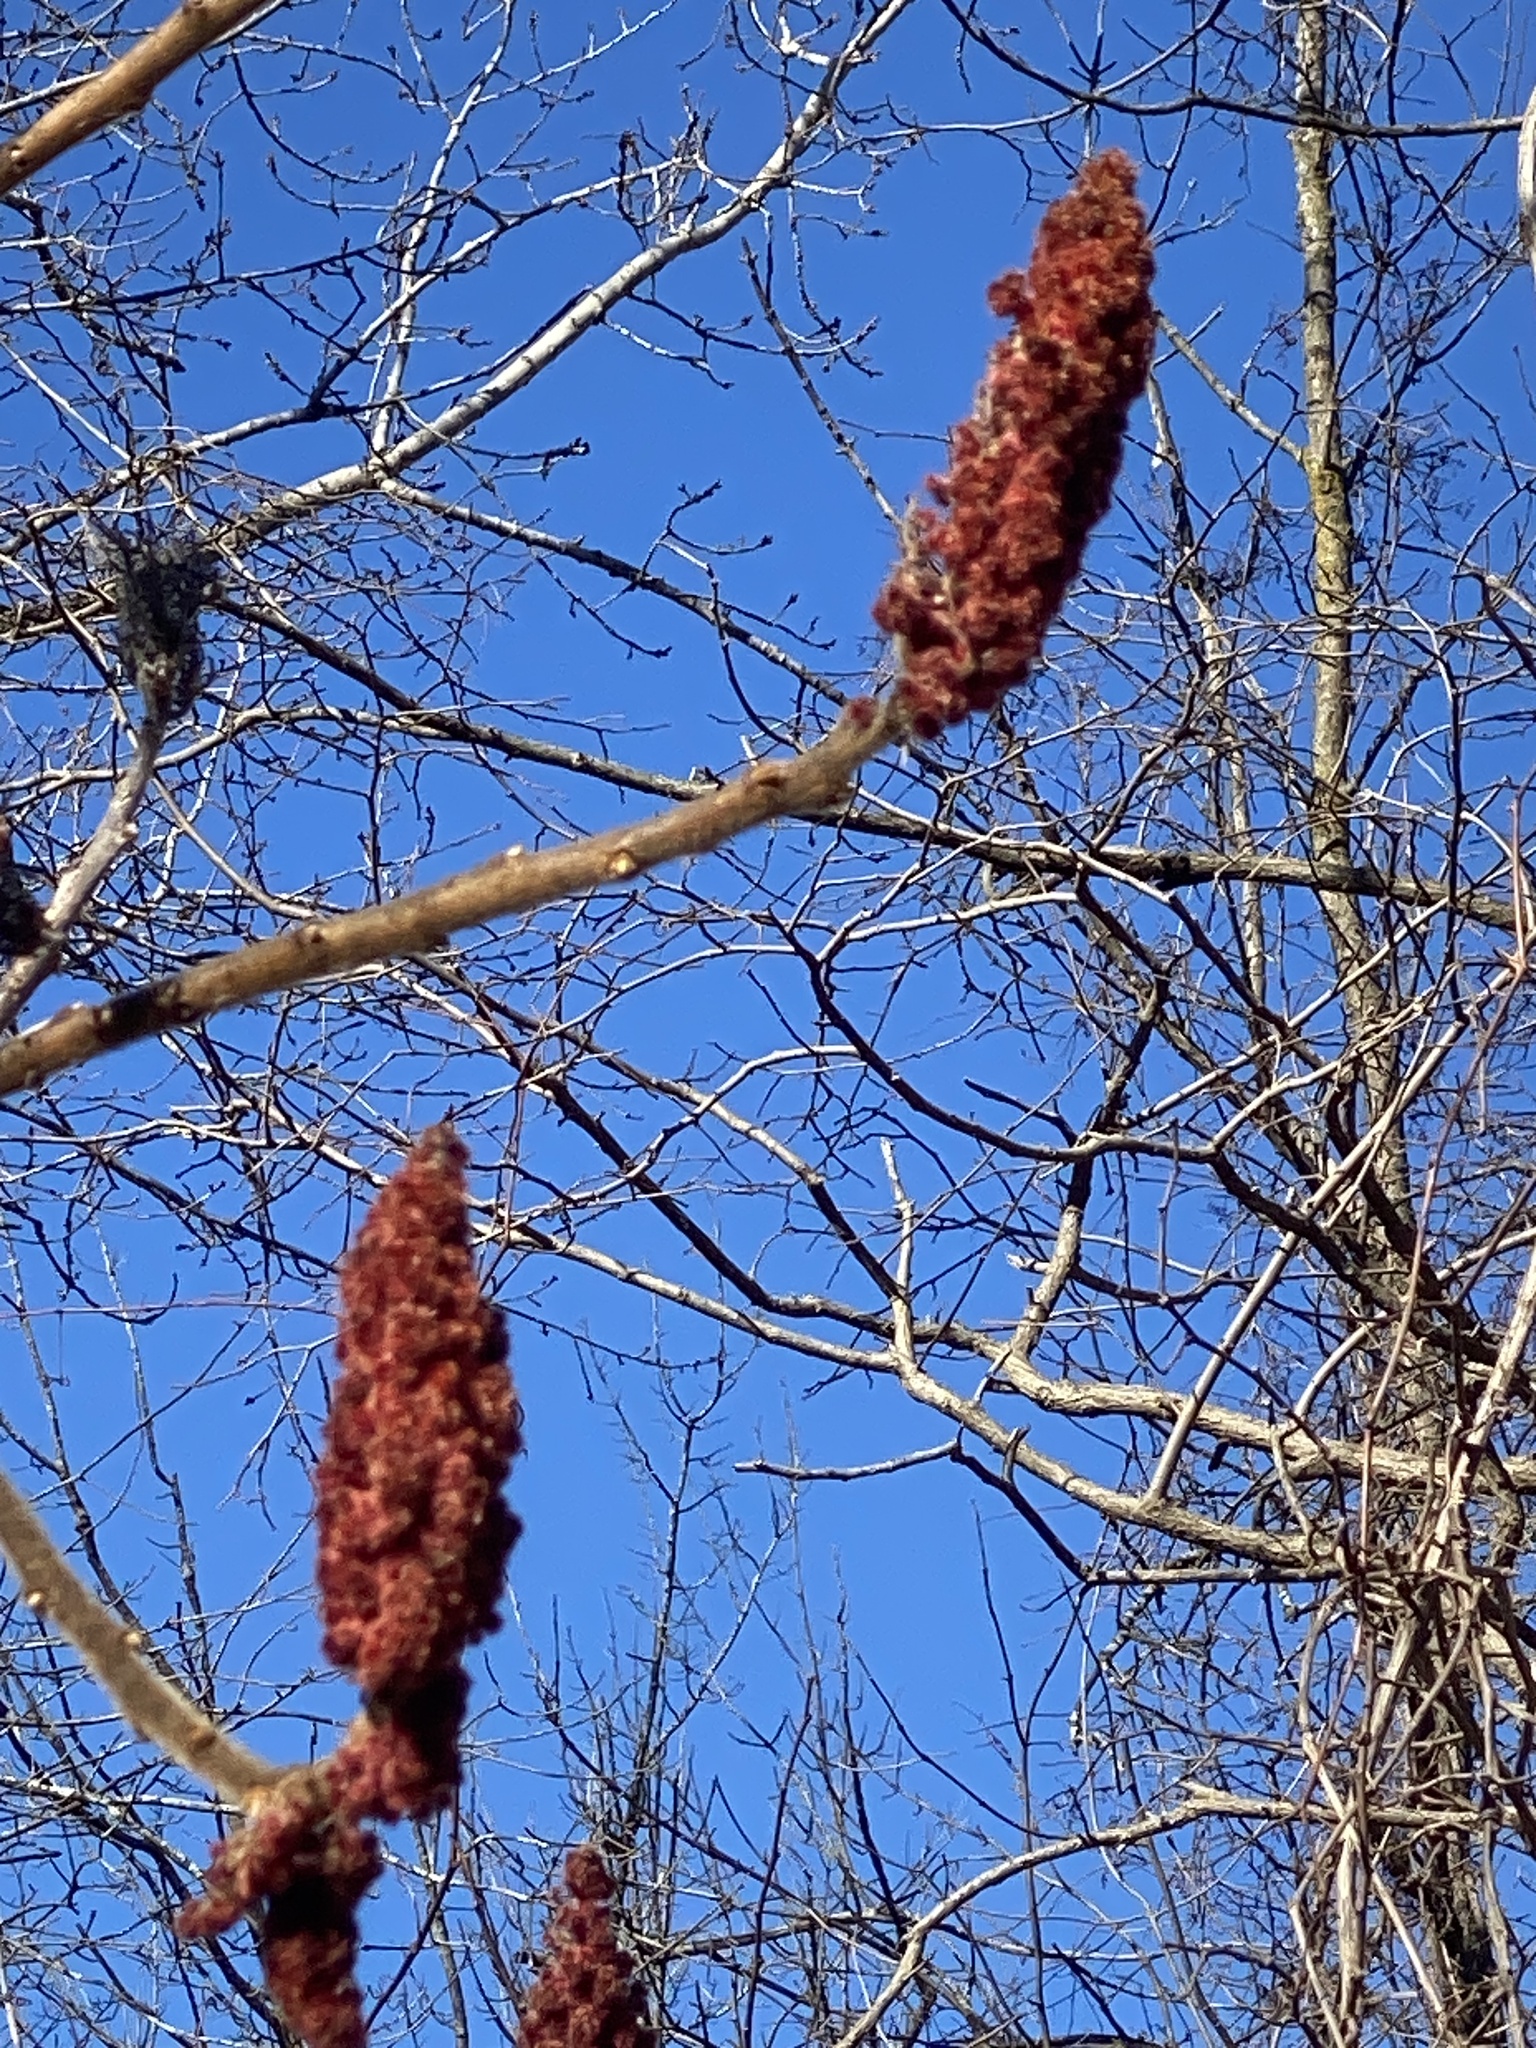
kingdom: Plantae
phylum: Tracheophyta
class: Magnoliopsida
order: Sapindales
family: Anacardiaceae
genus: Rhus
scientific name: Rhus typhina
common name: Staghorn sumac
